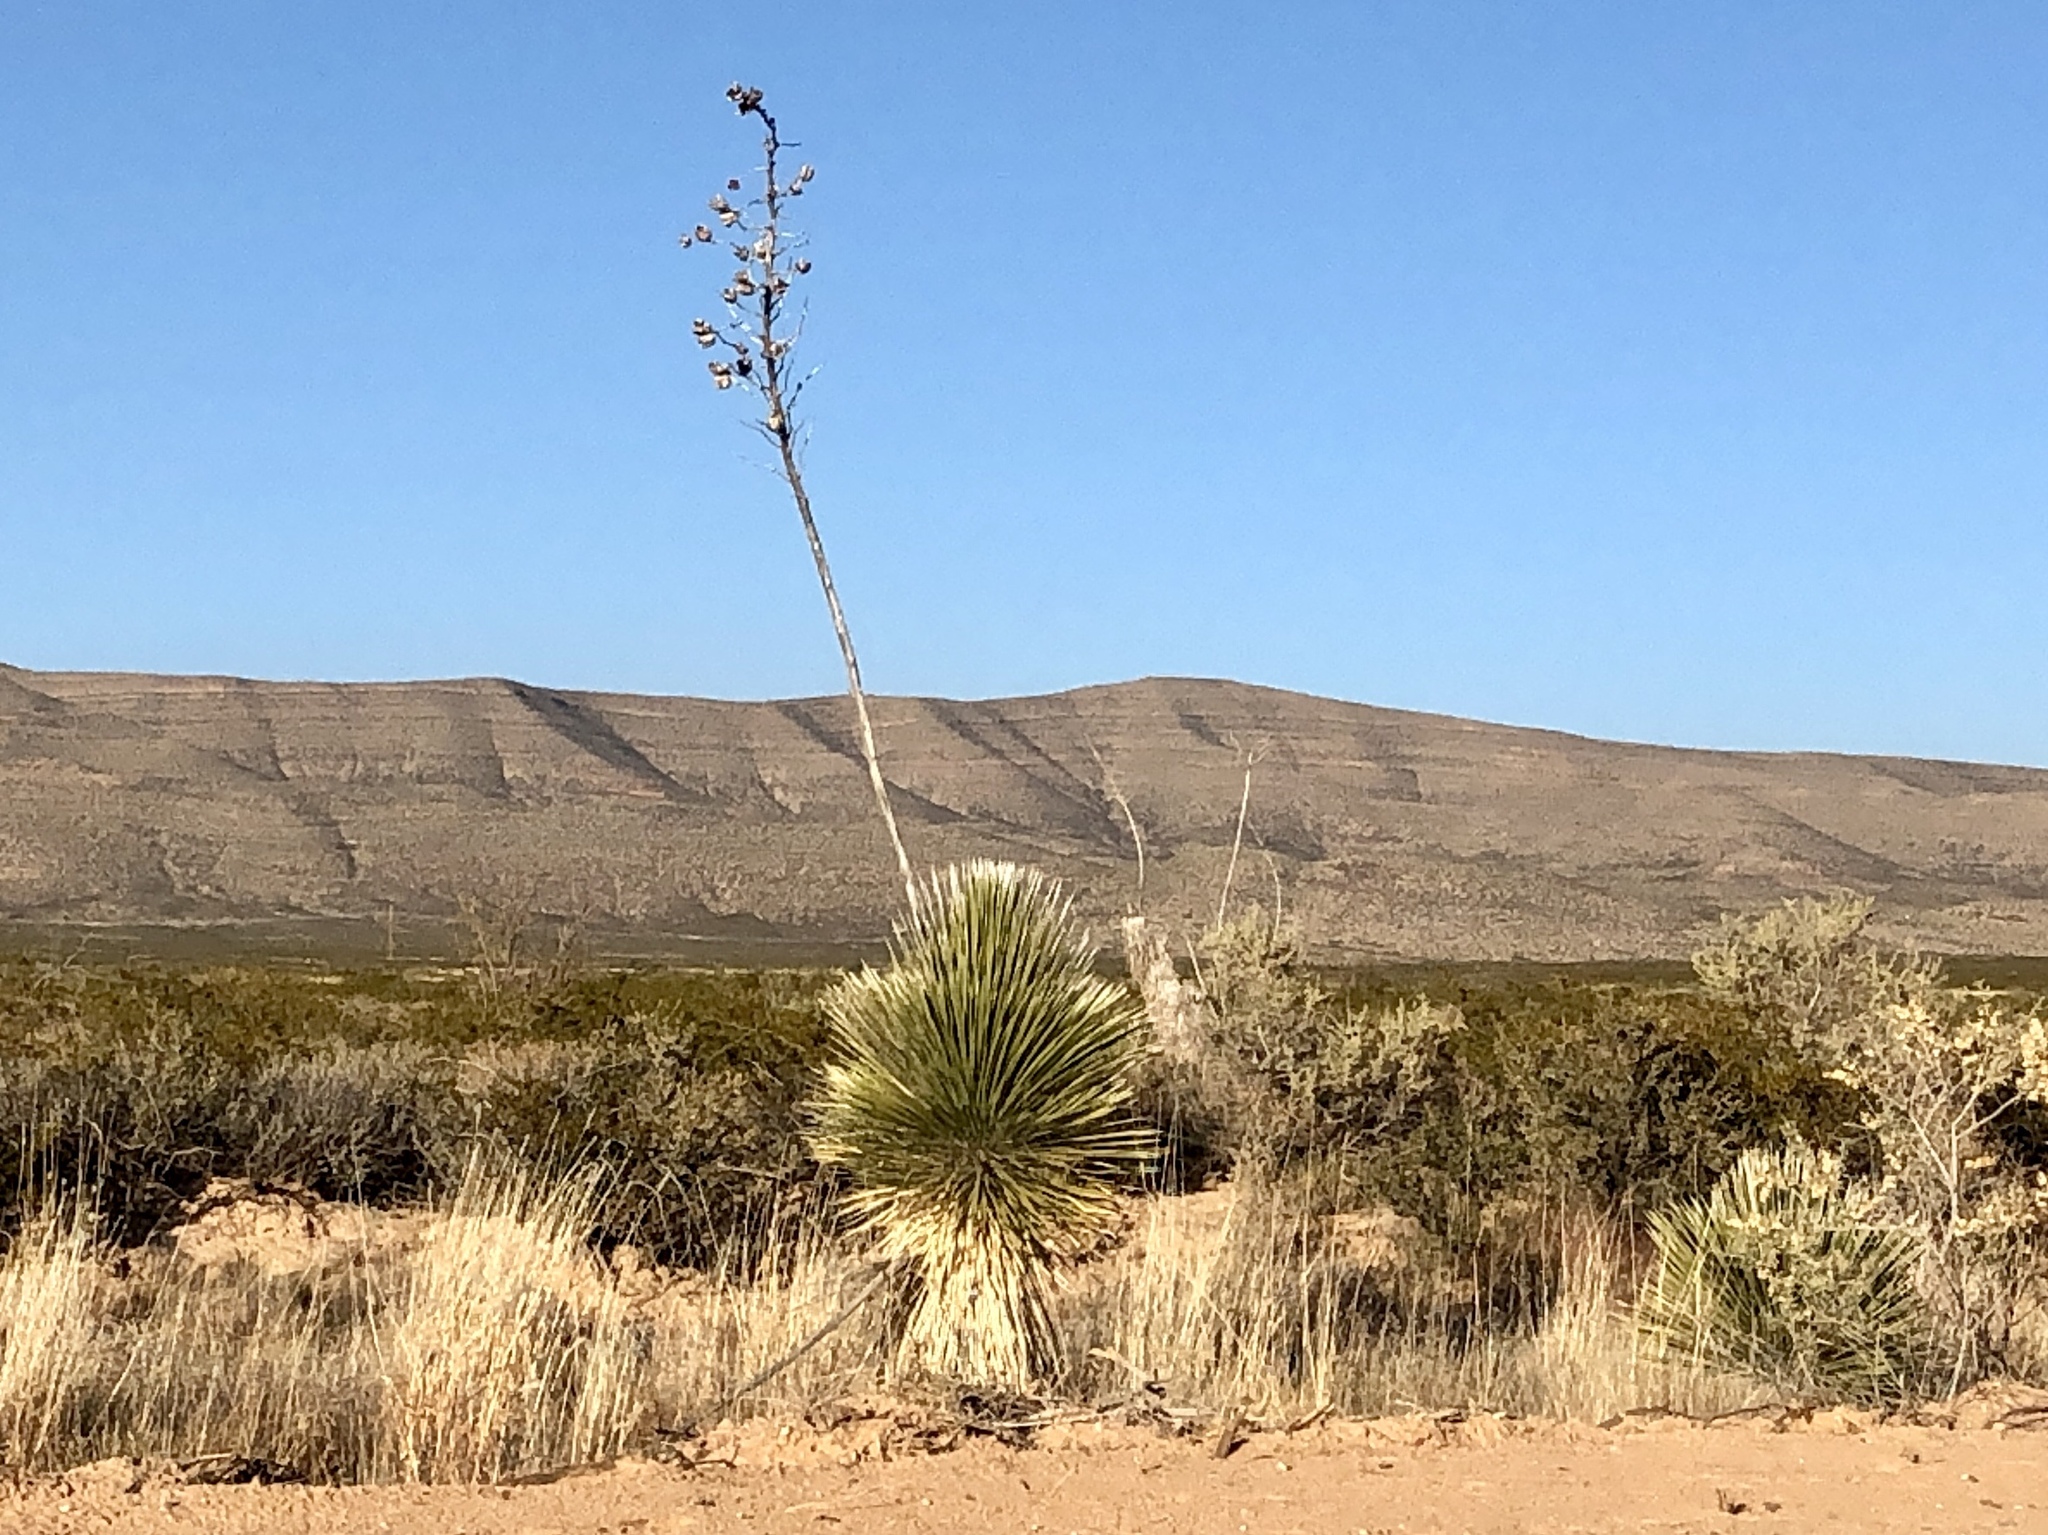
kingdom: Plantae
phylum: Tracheophyta
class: Liliopsida
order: Asparagales
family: Asparagaceae
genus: Yucca
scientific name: Yucca elata
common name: Palmella
